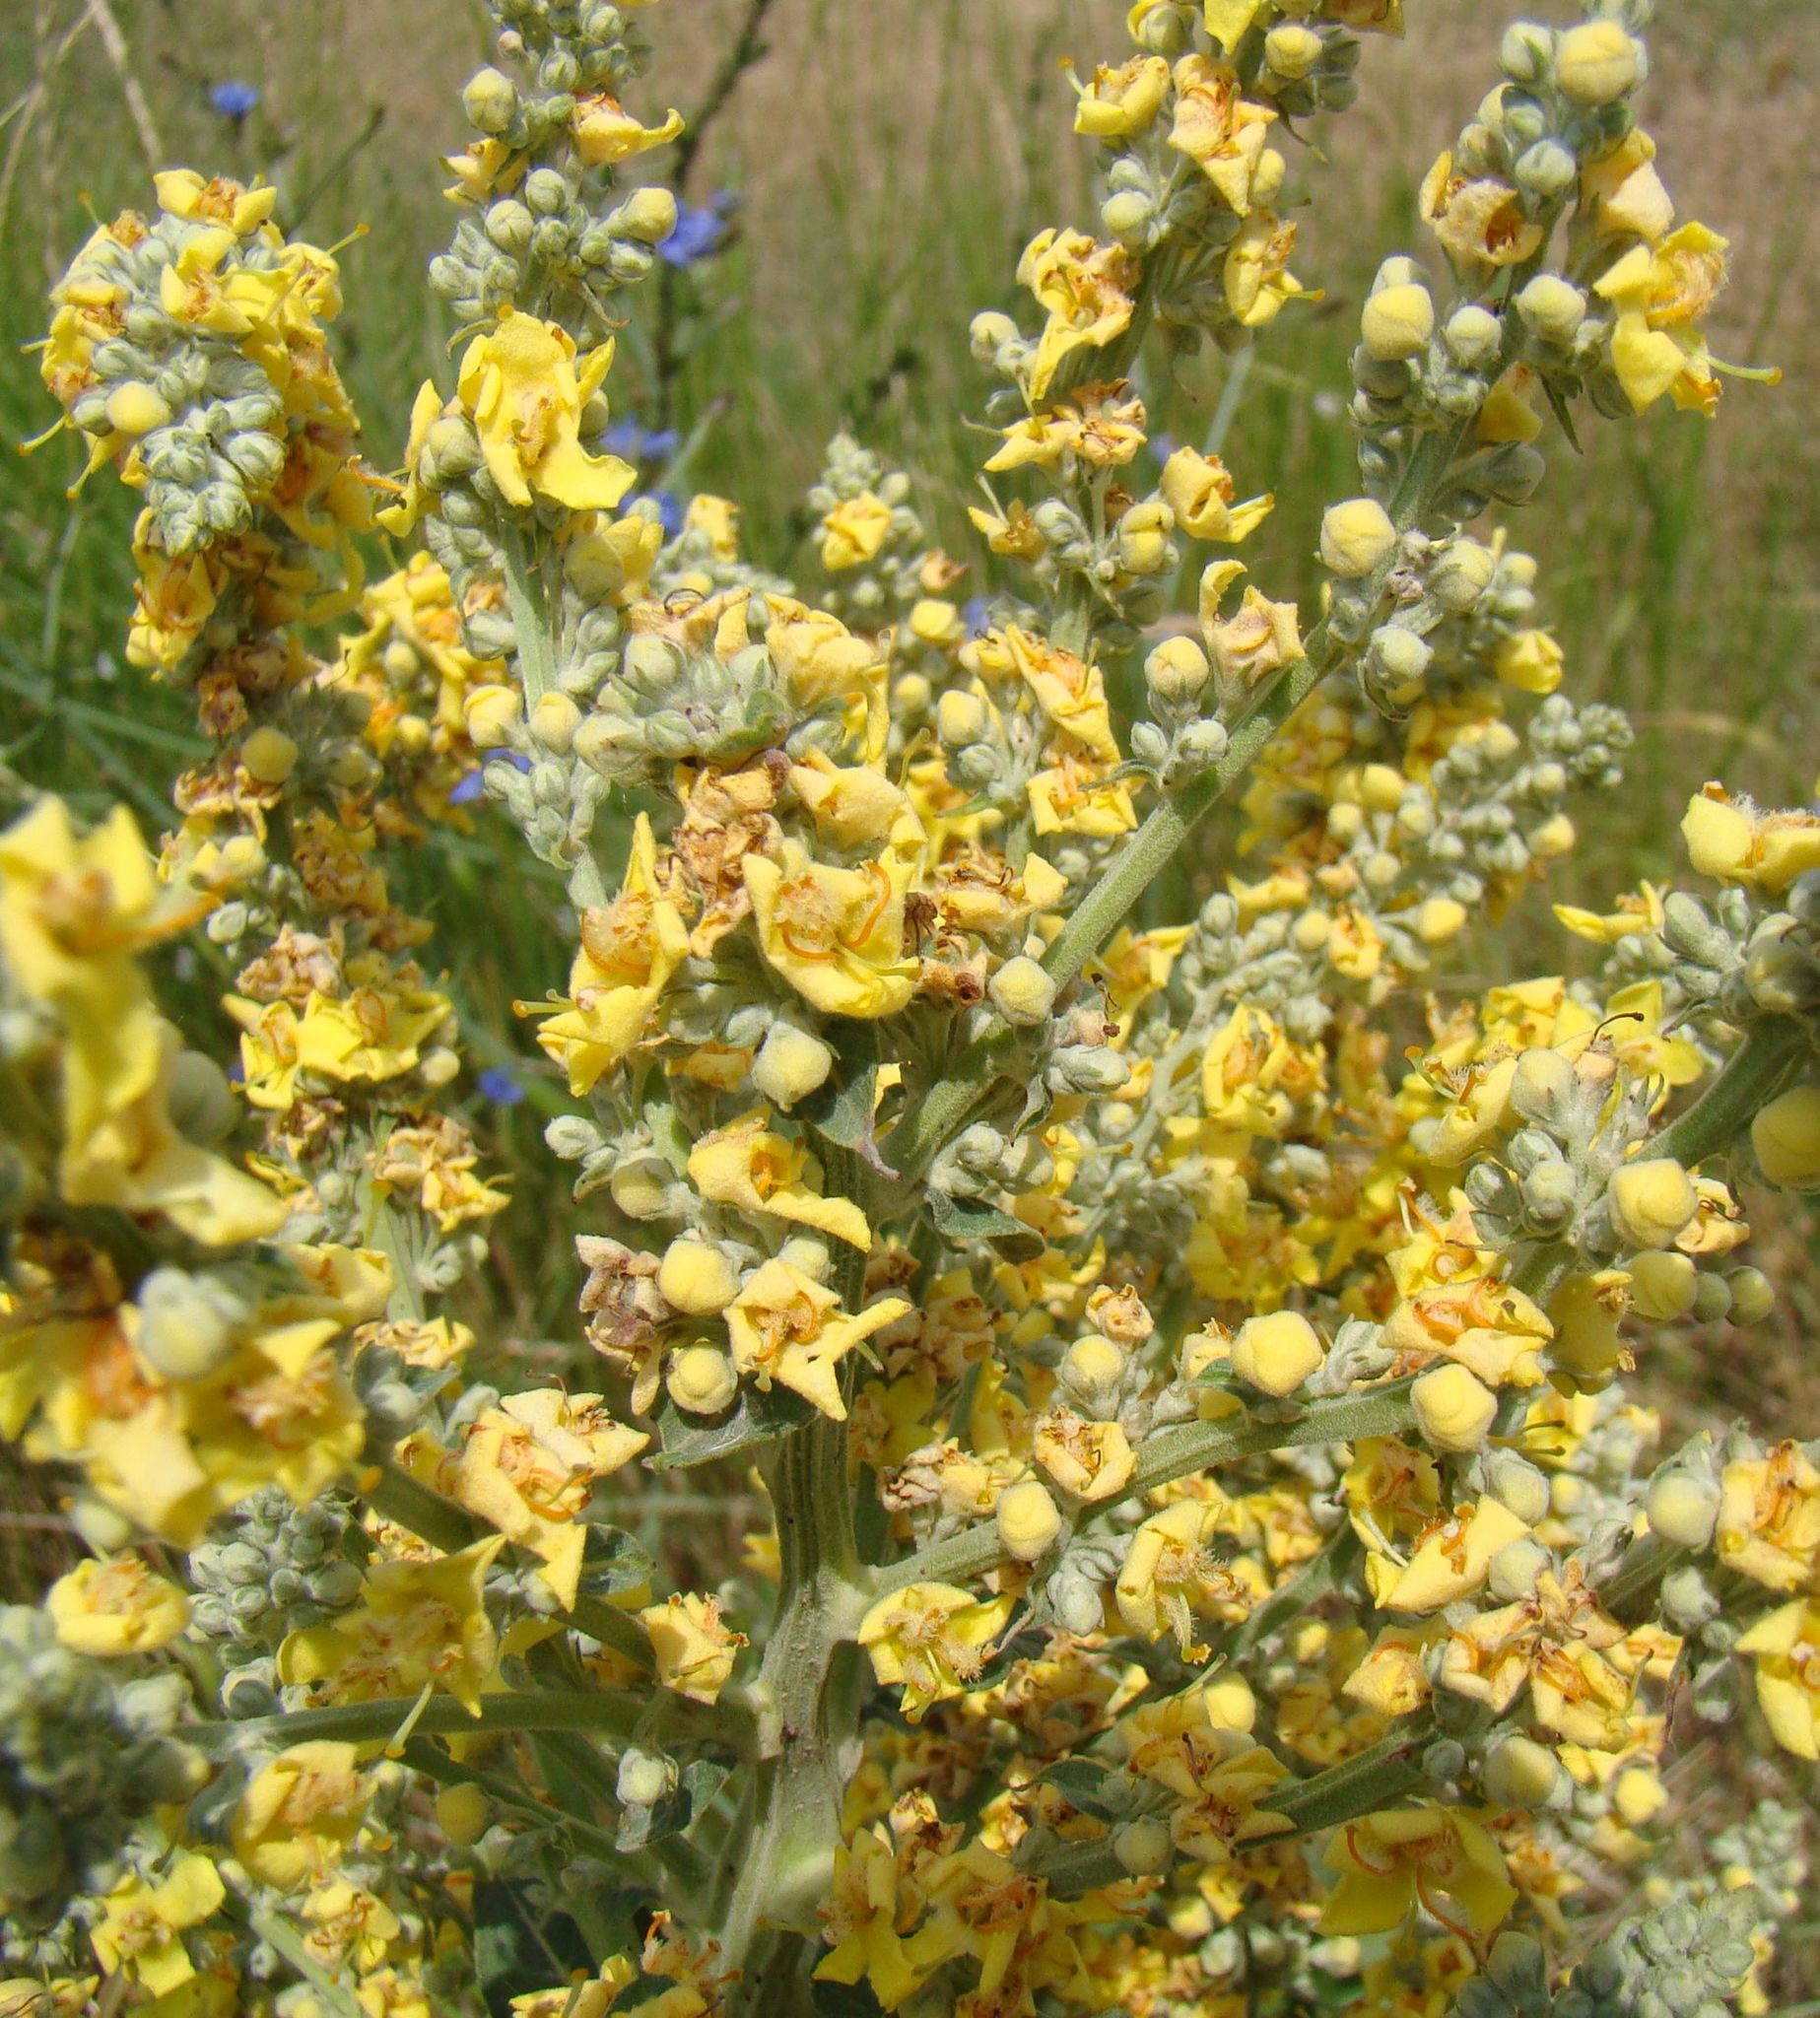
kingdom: Plantae
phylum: Tracheophyta
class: Magnoliopsida
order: Lamiales
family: Scrophulariaceae
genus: Verbascum
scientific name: Verbascum lychnitis
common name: White mullein
